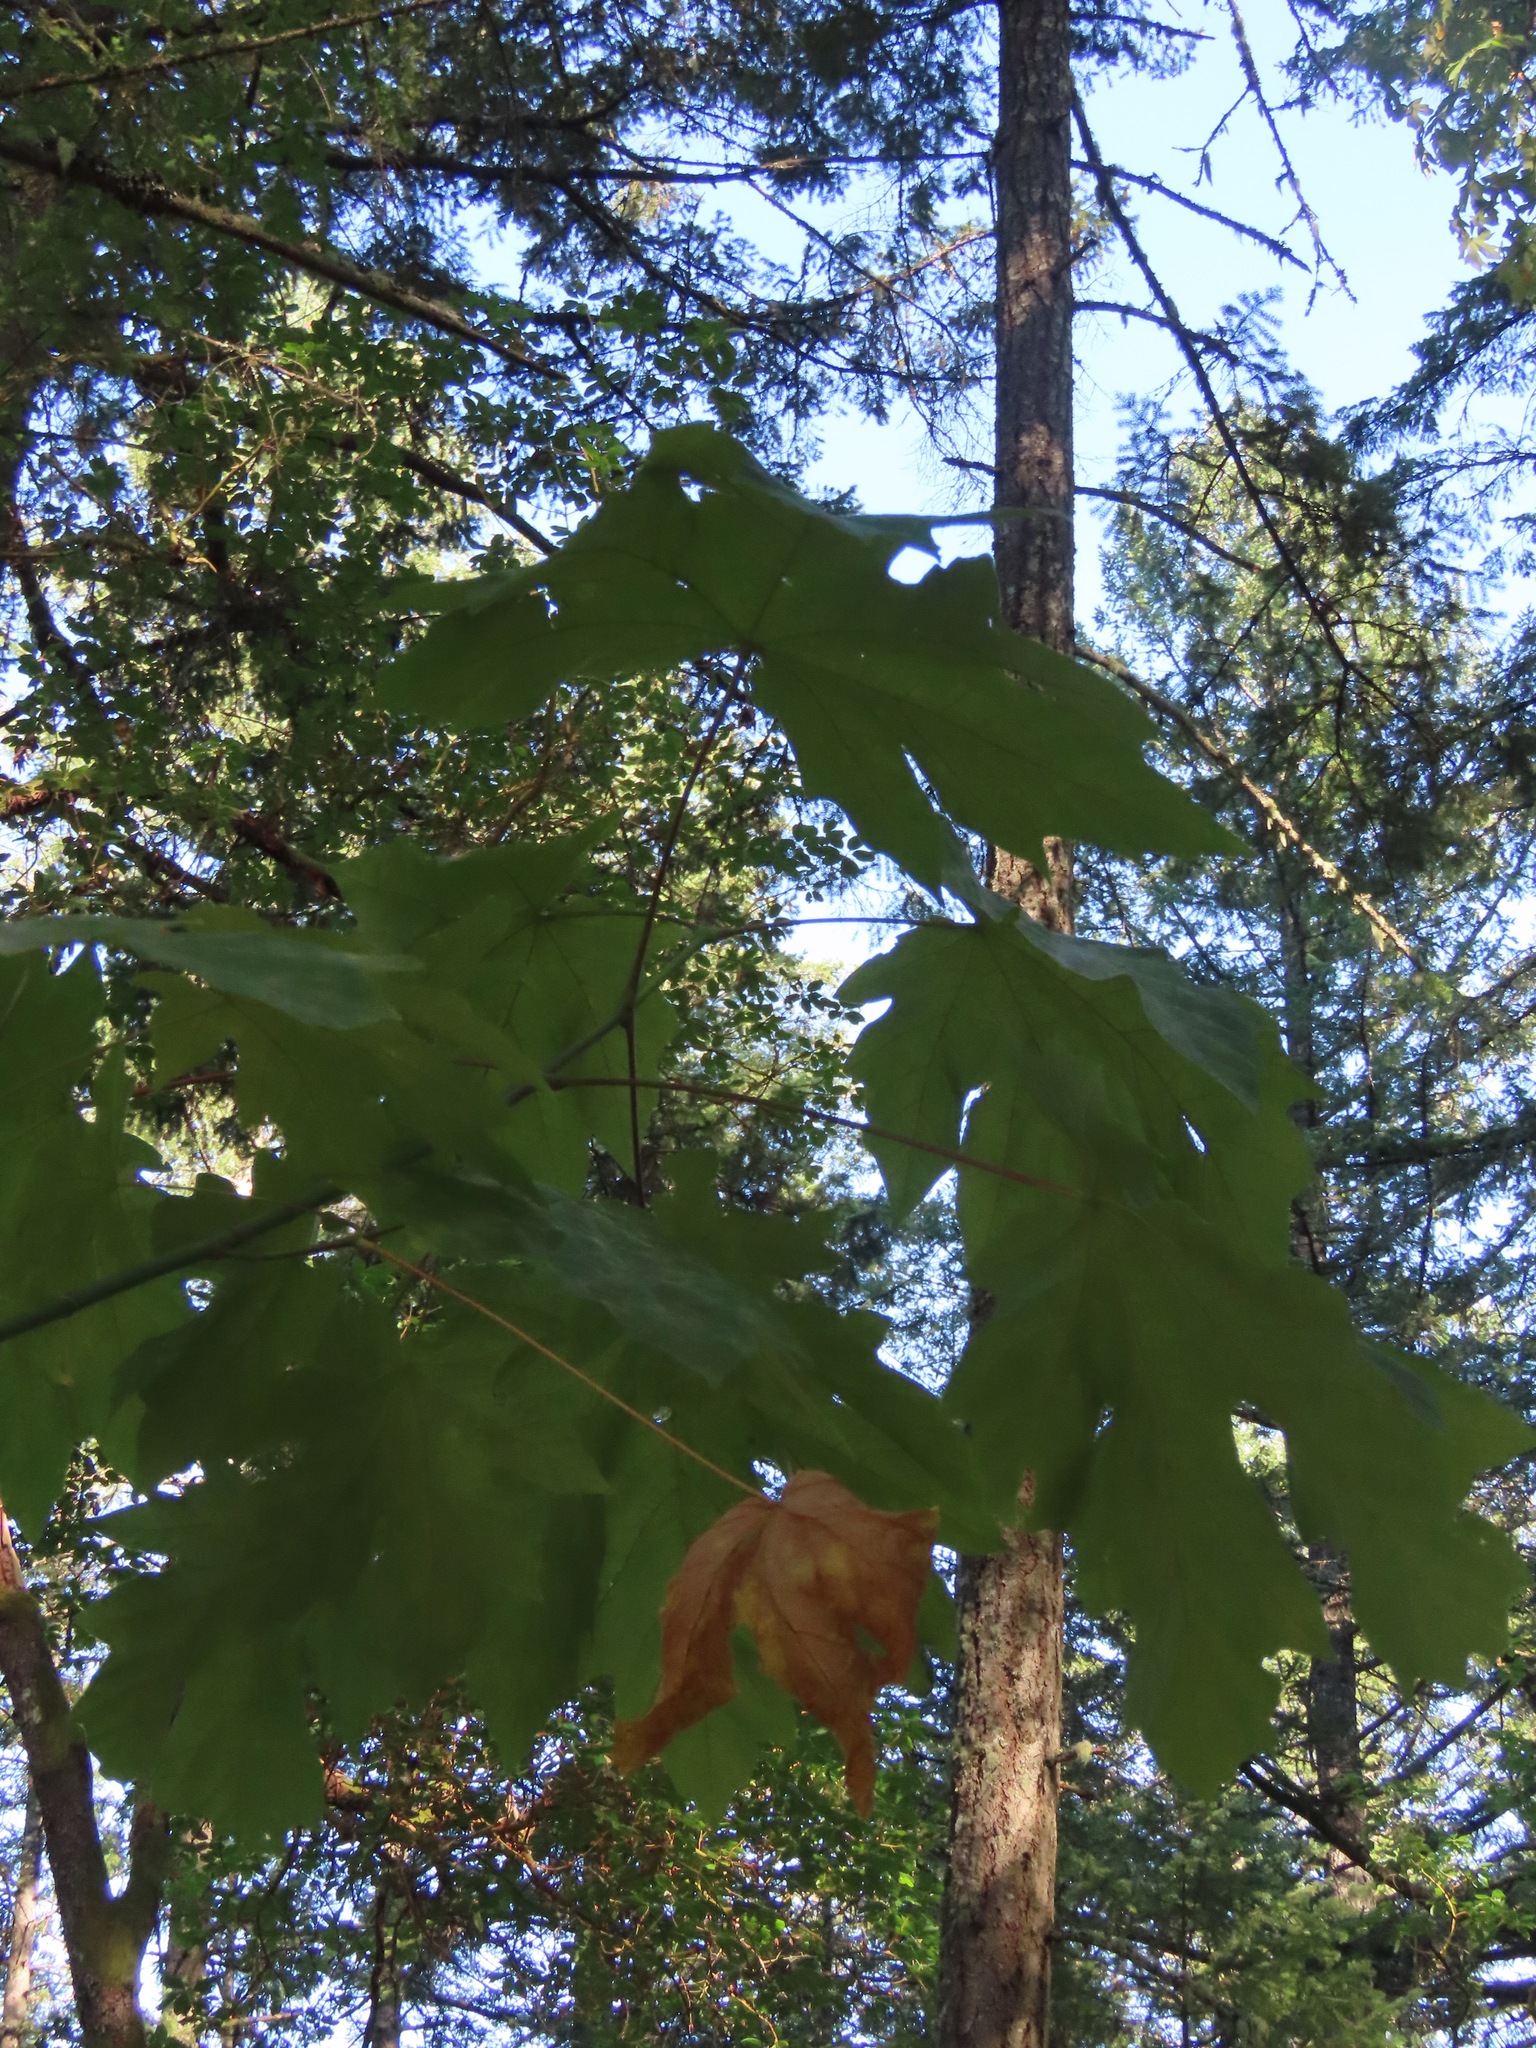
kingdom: Plantae
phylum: Tracheophyta
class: Magnoliopsida
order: Sapindales
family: Sapindaceae
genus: Acer
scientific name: Acer macrophyllum
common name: Oregon maple
